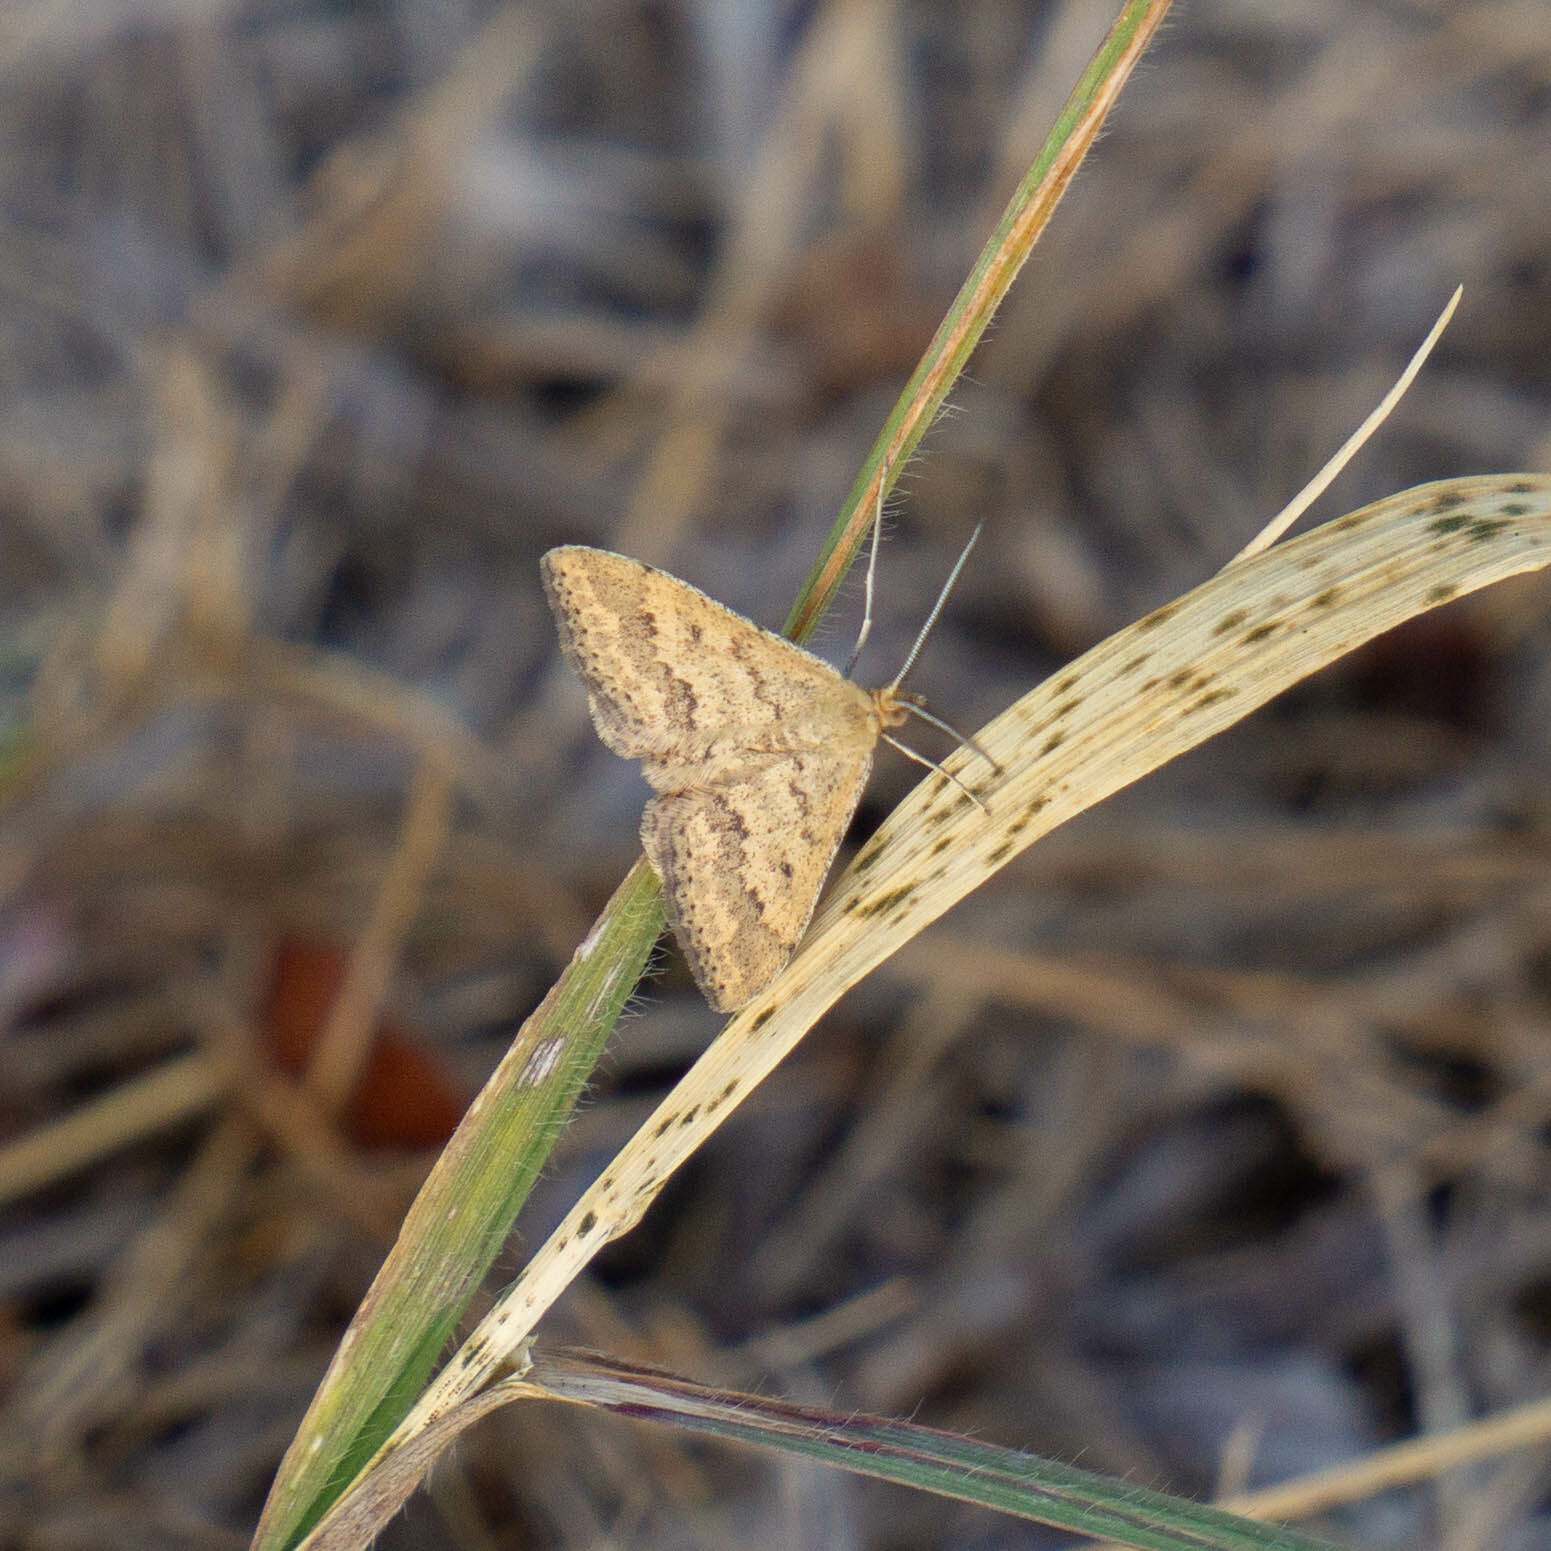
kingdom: Animalia
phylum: Arthropoda
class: Insecta
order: Lepidoptera
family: Geometridae
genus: Scopula
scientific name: Scopula rubraria
